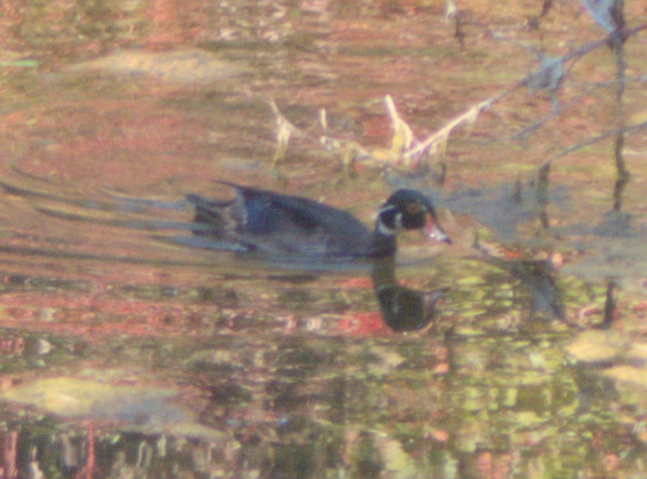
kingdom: Animalia
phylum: Chordata
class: Aves
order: Anseriformes
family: Anatidae
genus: Aix
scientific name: Aix sponsa
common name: Wood duck
